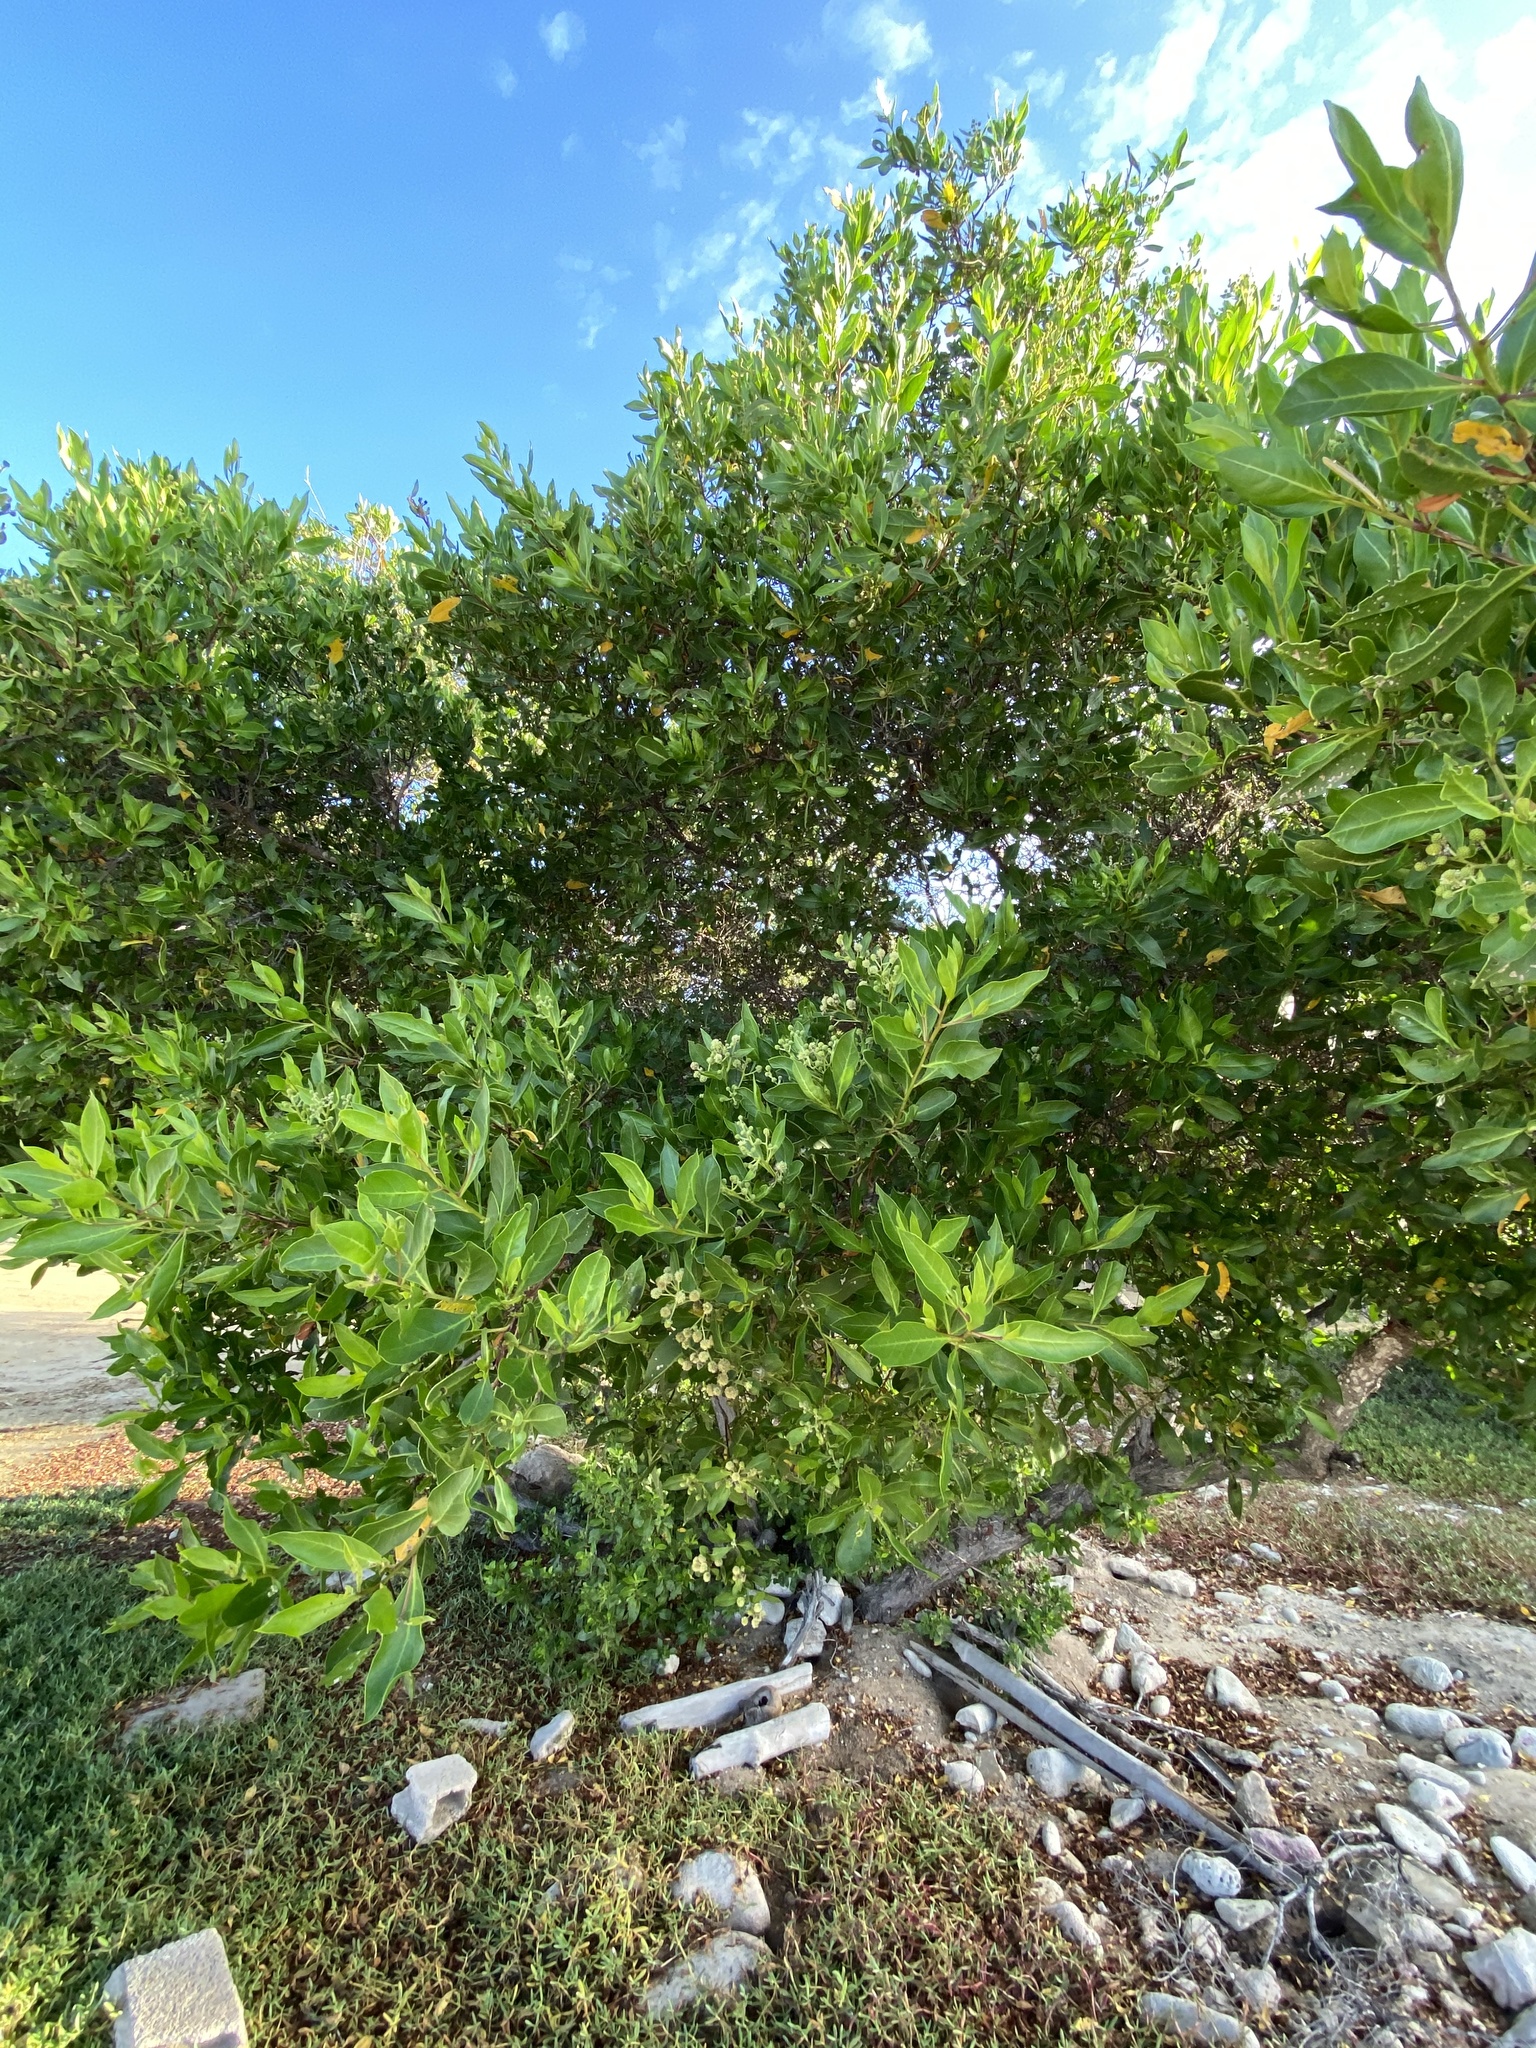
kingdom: Plantae
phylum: Tracheophyta
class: Magnoliopsida
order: Myrtales
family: Combretaceae
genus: Conocarpus
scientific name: Conocarpus erectus
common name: Button mangrove
